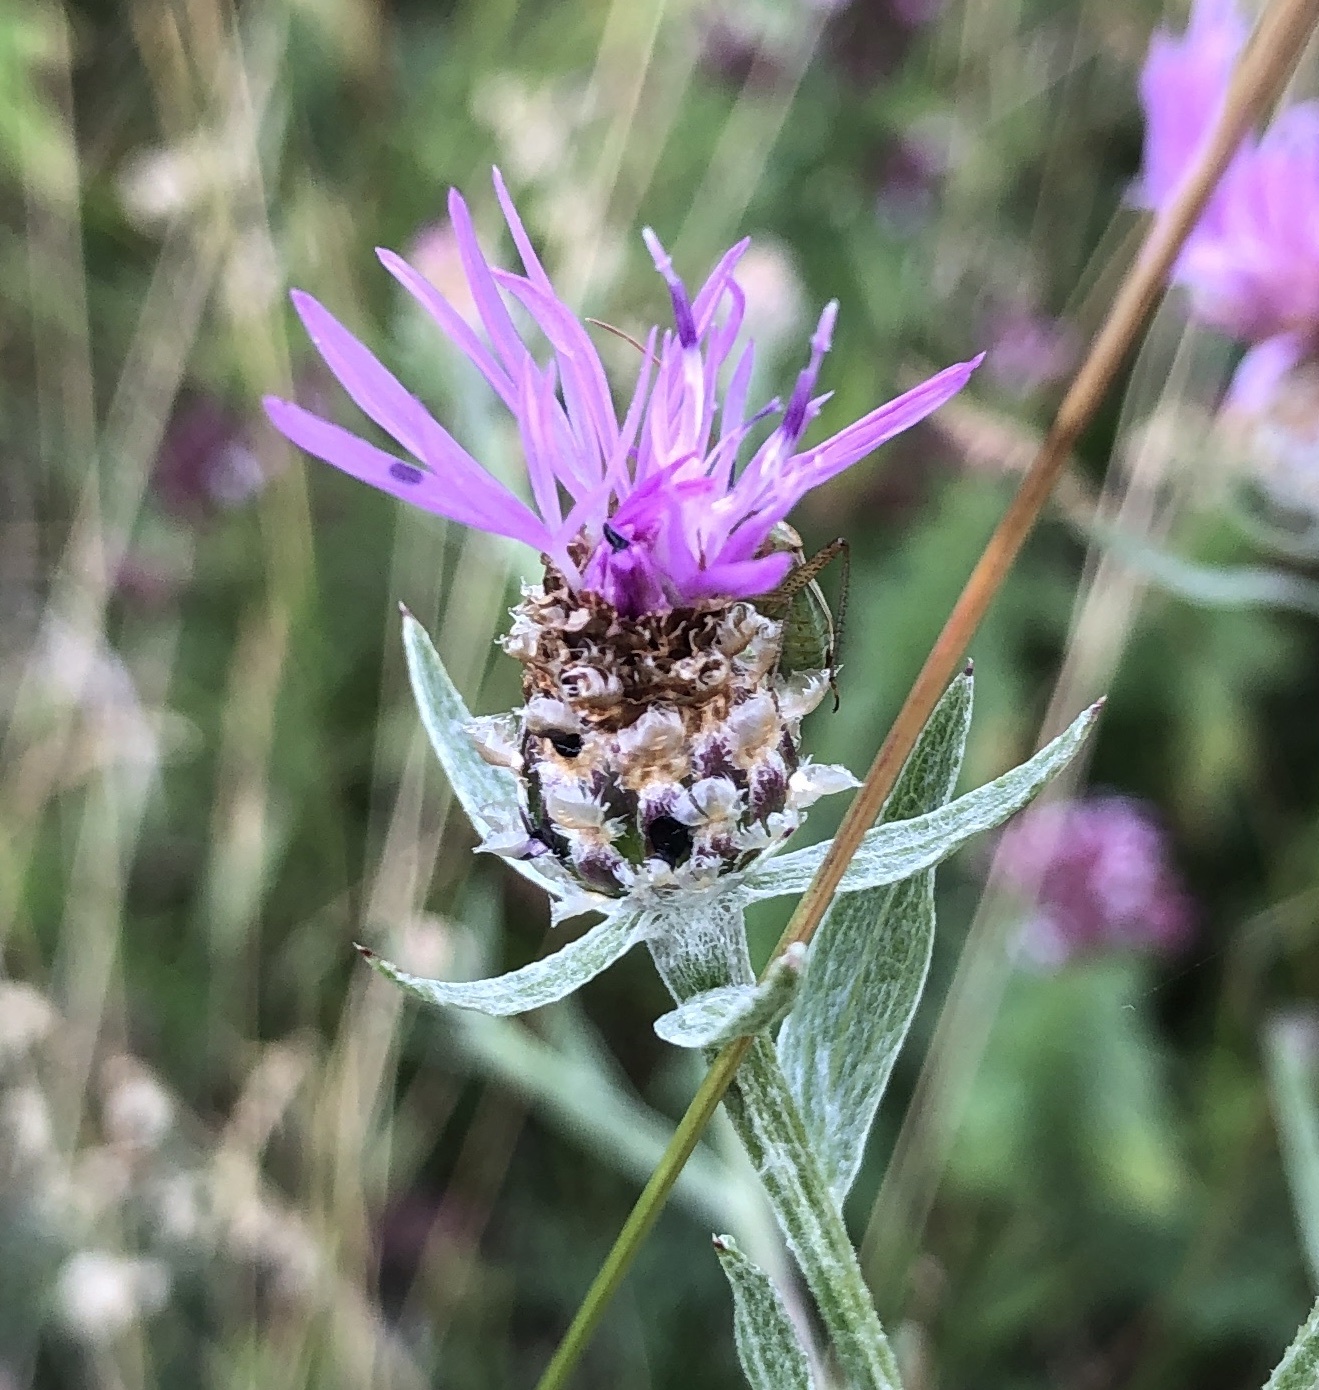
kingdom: Plantae
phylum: Tracheophyta
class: Magnoliopsida
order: Asterales
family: Asteraceae
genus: Centaurea
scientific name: Centaurea jacea
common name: Brown knapweed
